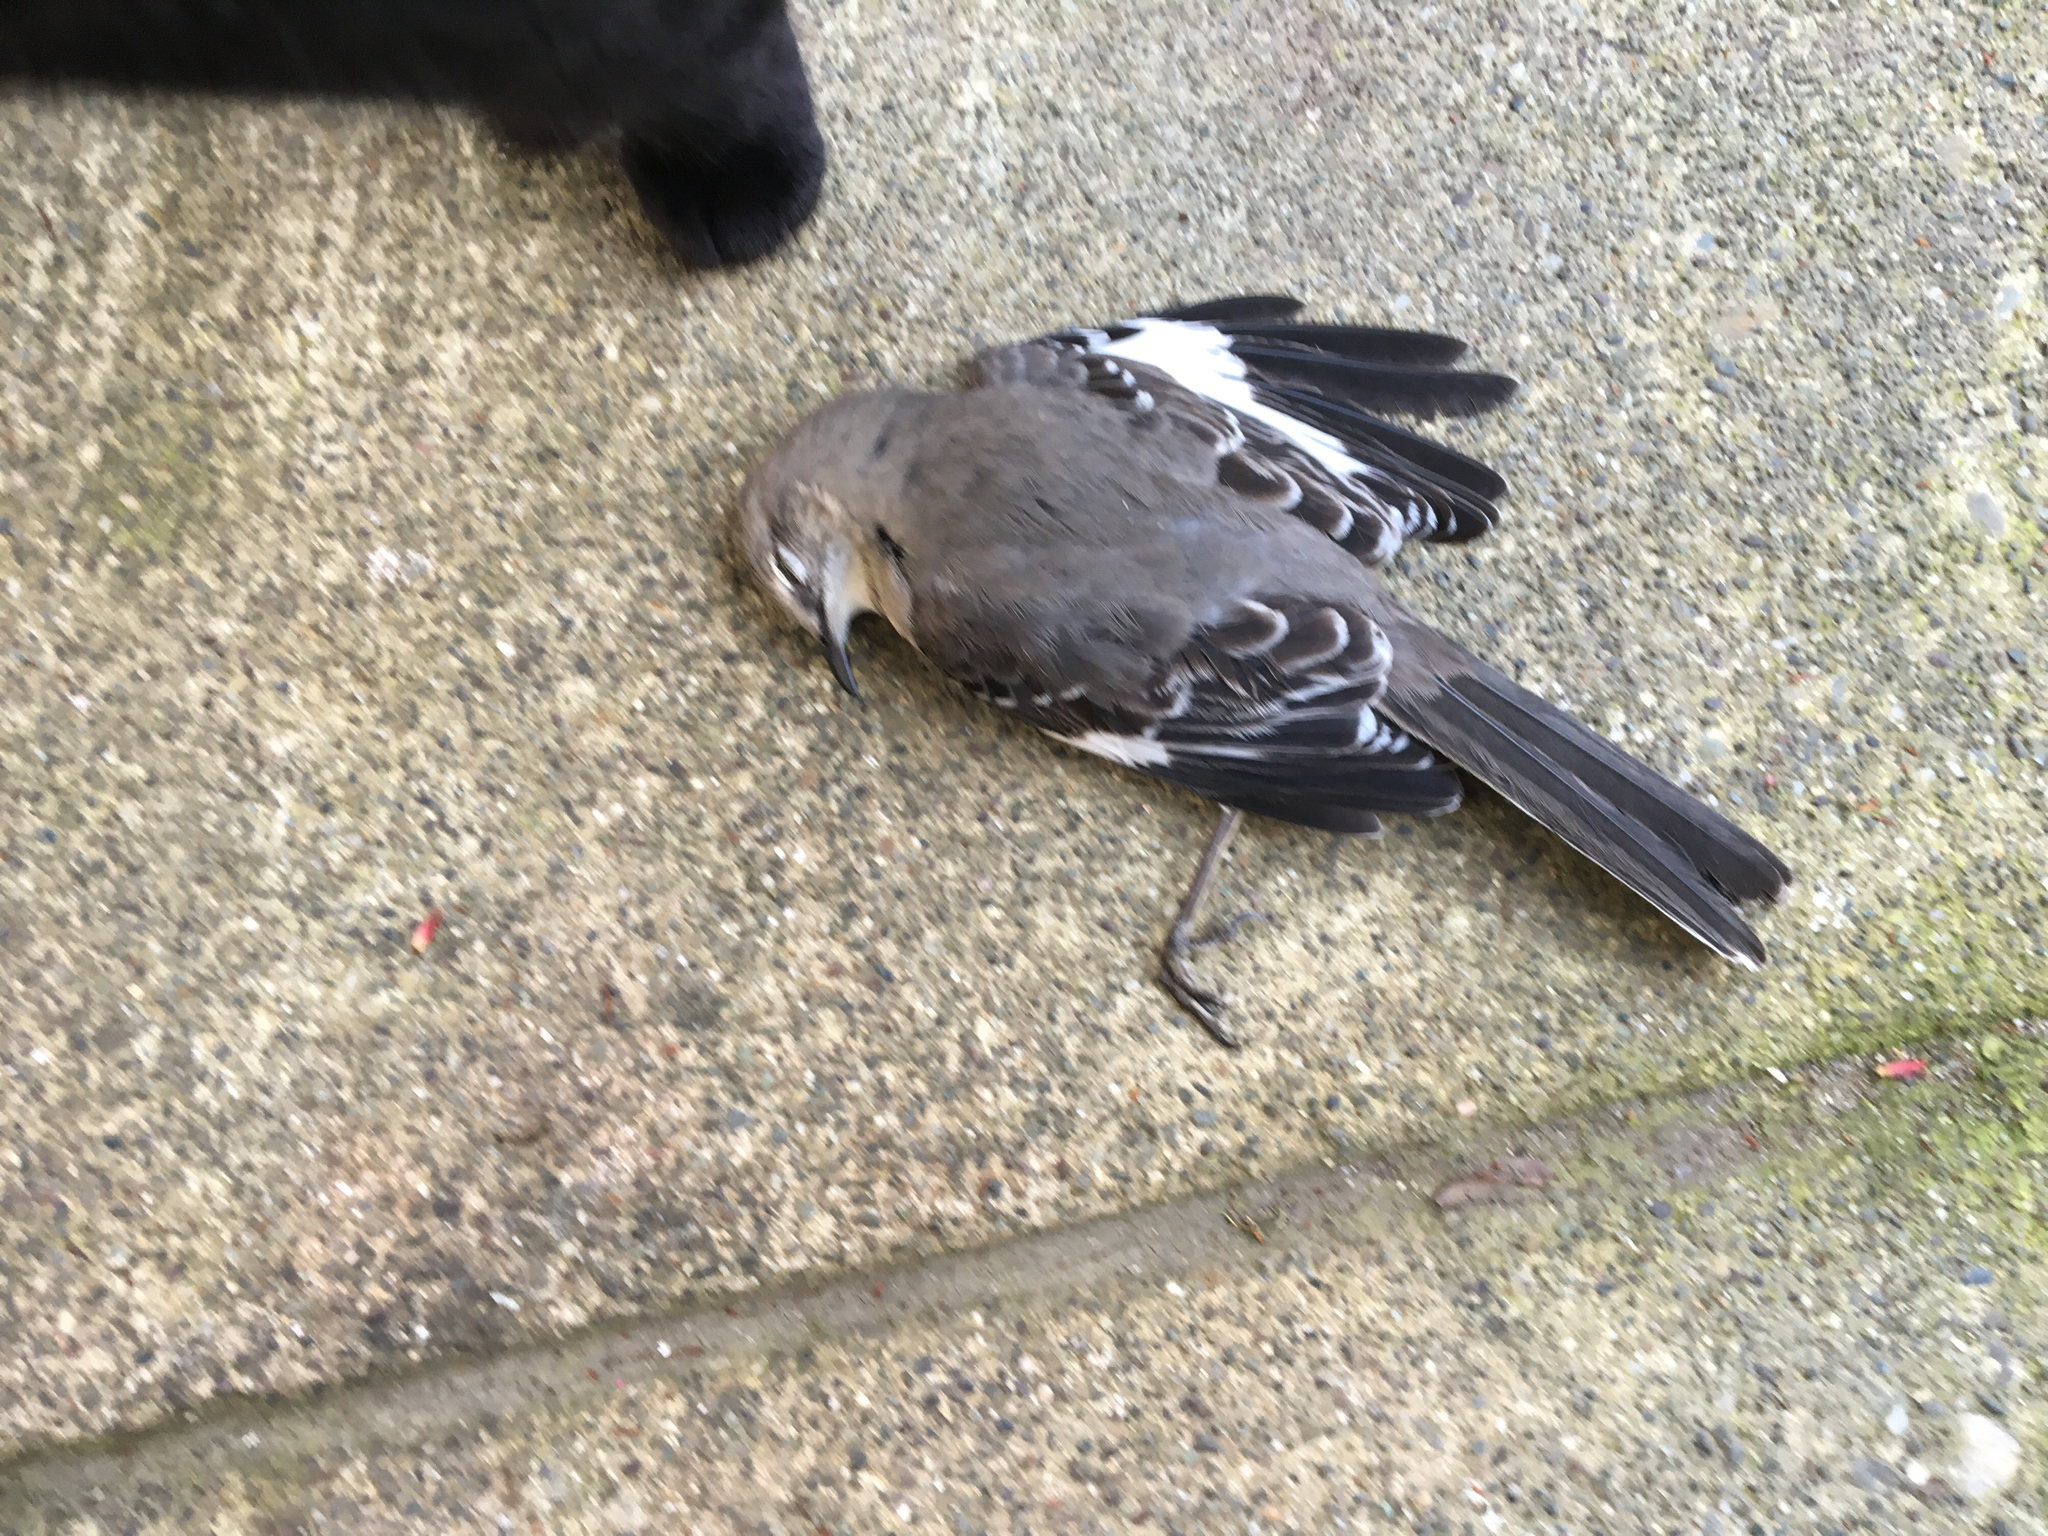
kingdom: Animalia
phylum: Chordata
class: Aves
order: Passeriformes
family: Mimidae
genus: Mimus
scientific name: Mimus polyglottos
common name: Northern mockingbird
